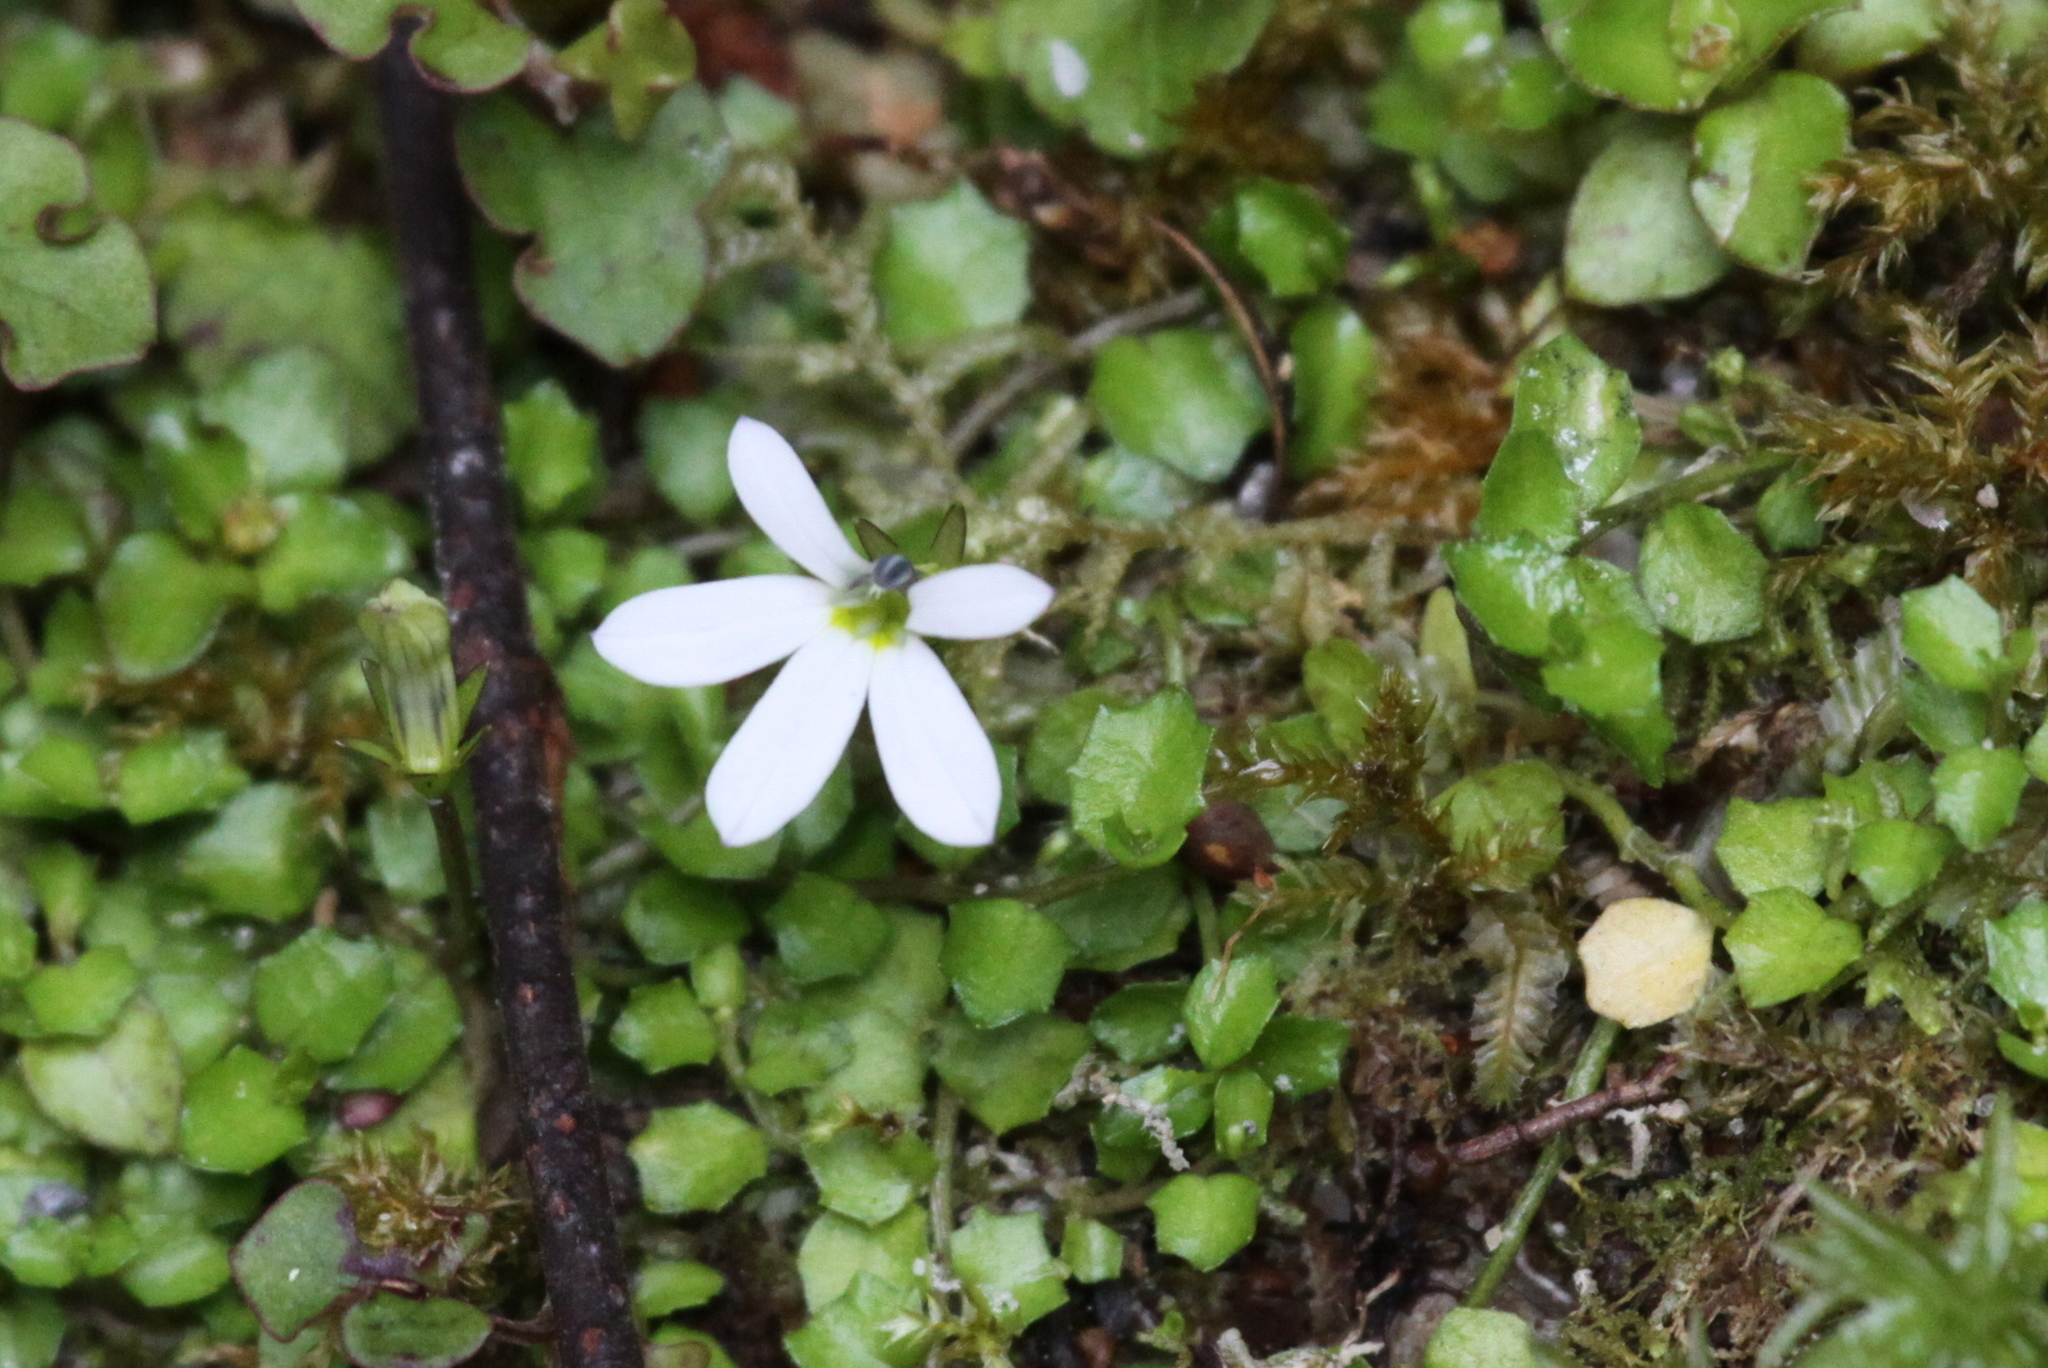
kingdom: Plantae
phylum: Tracheophyta
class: Magnoliopsida
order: Asterales
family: Campanulaceae
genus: Lobelia
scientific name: Lobelia angulata
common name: Lawn lobelia
